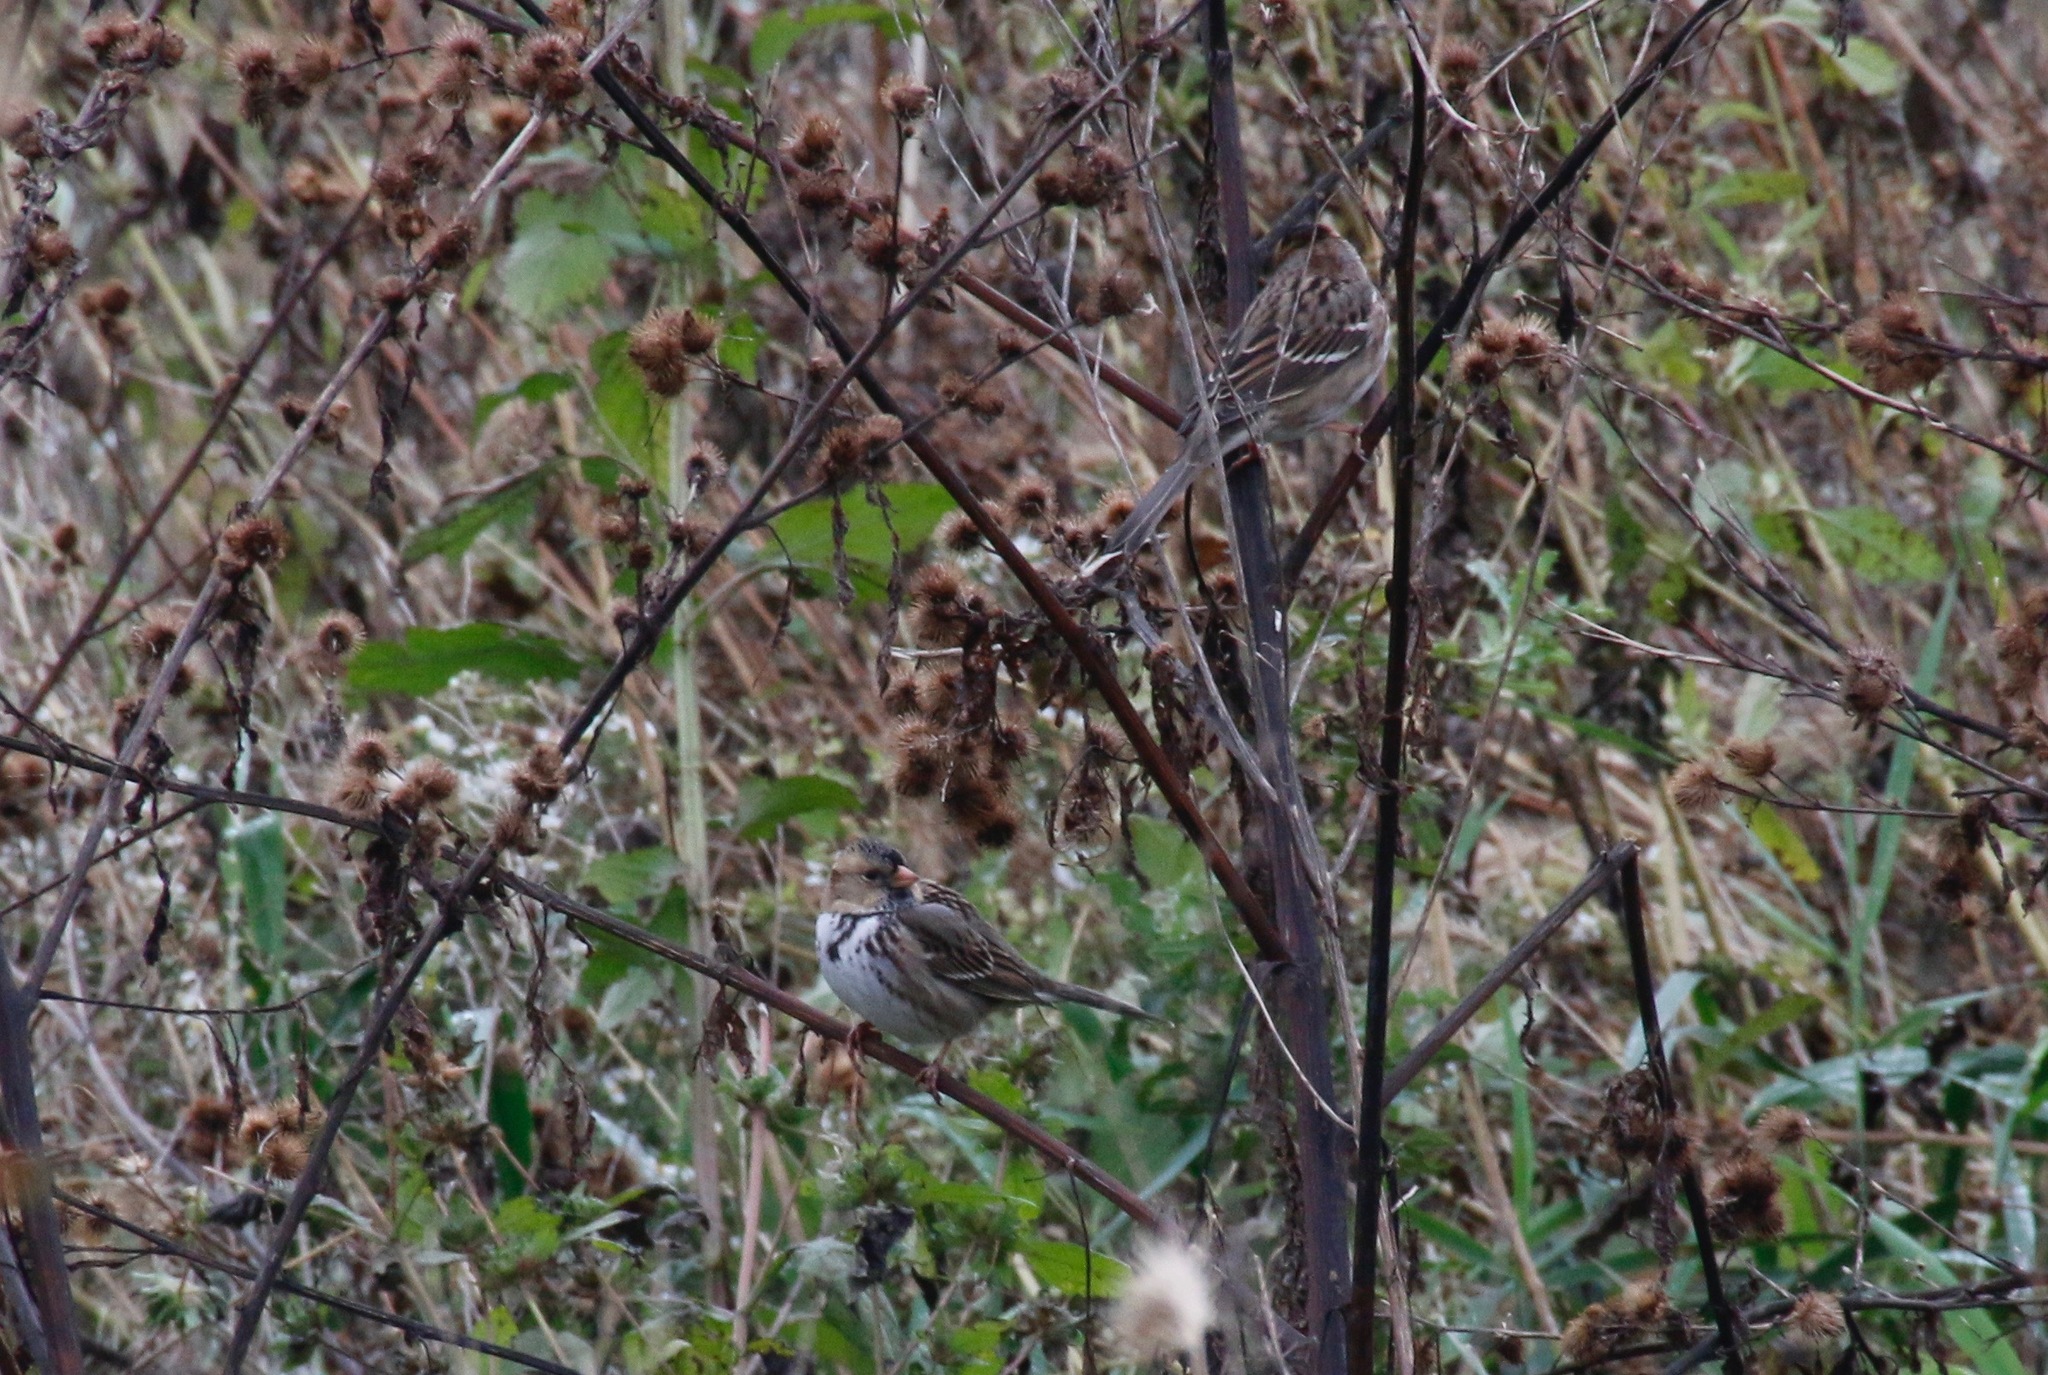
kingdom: Animalia
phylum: Chordata
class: Aves
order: Passeriformes
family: Passerellidae
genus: Zonotrichia
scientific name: Zonotrichia querula
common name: Harris's sparrow
